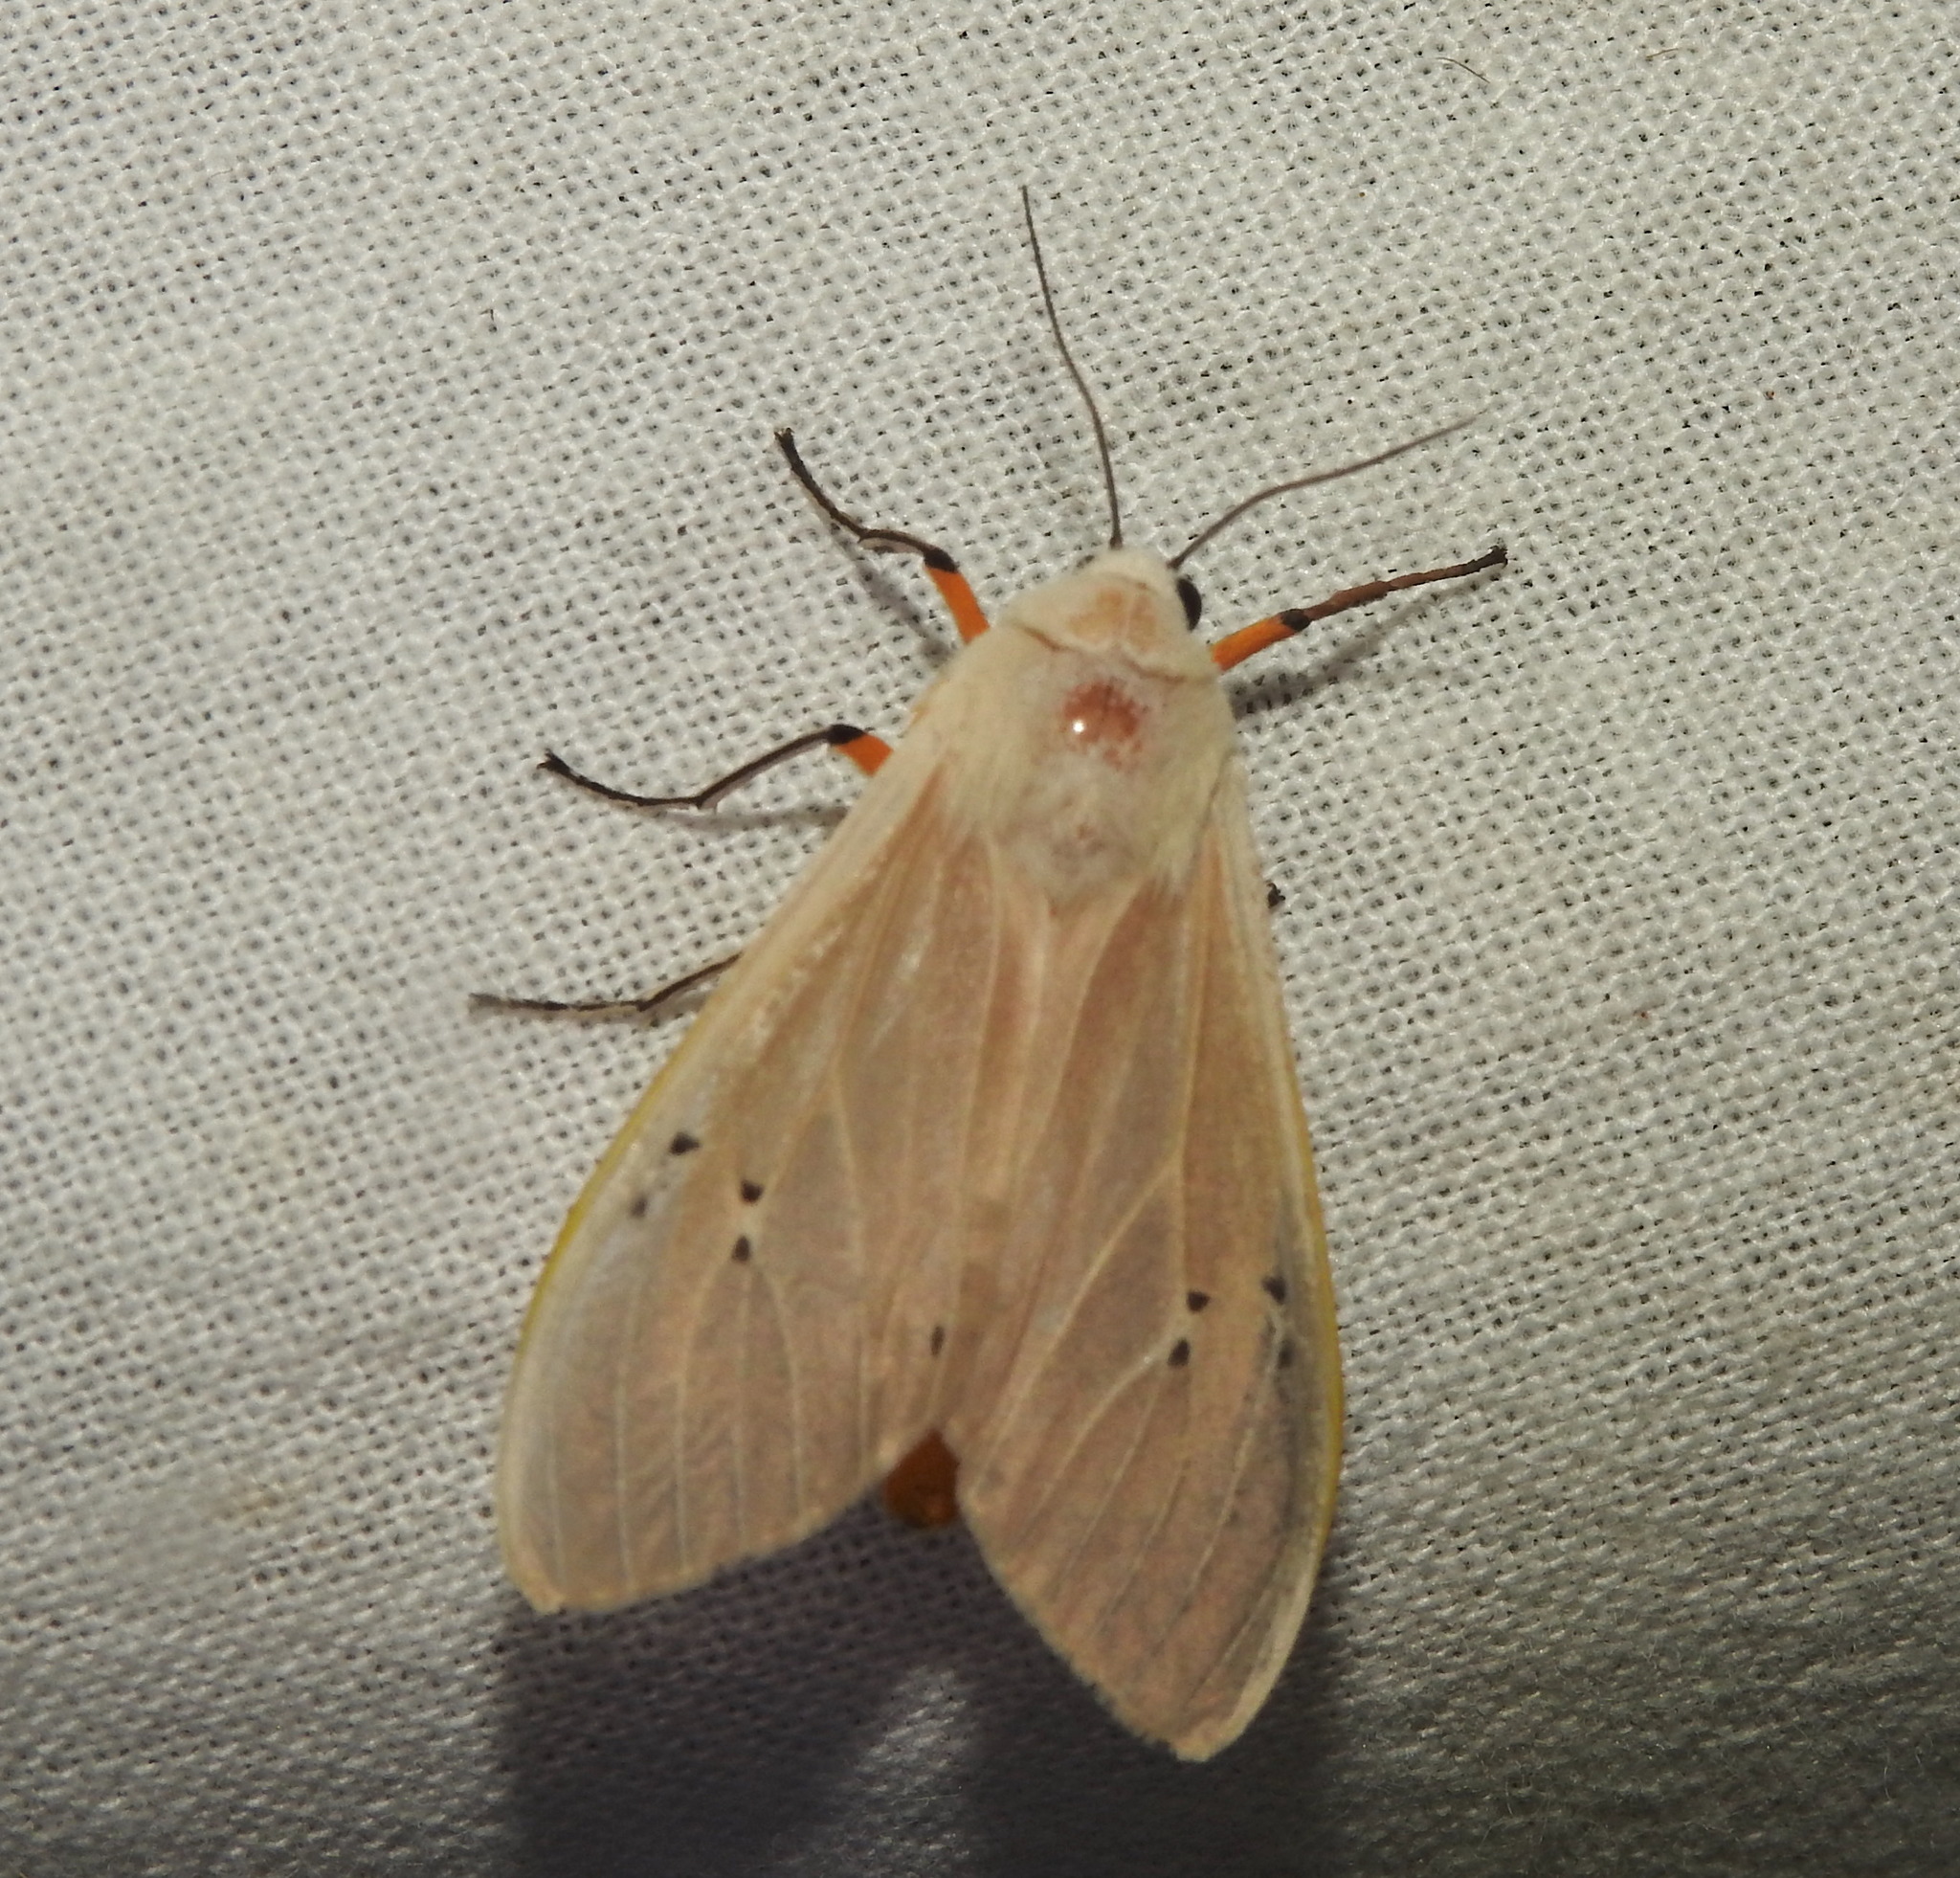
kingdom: Animalia
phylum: Arthropoda
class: Insecta
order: Lepidoptera
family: Erebidae
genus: Creatonotos
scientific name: Creatonotos transiens
